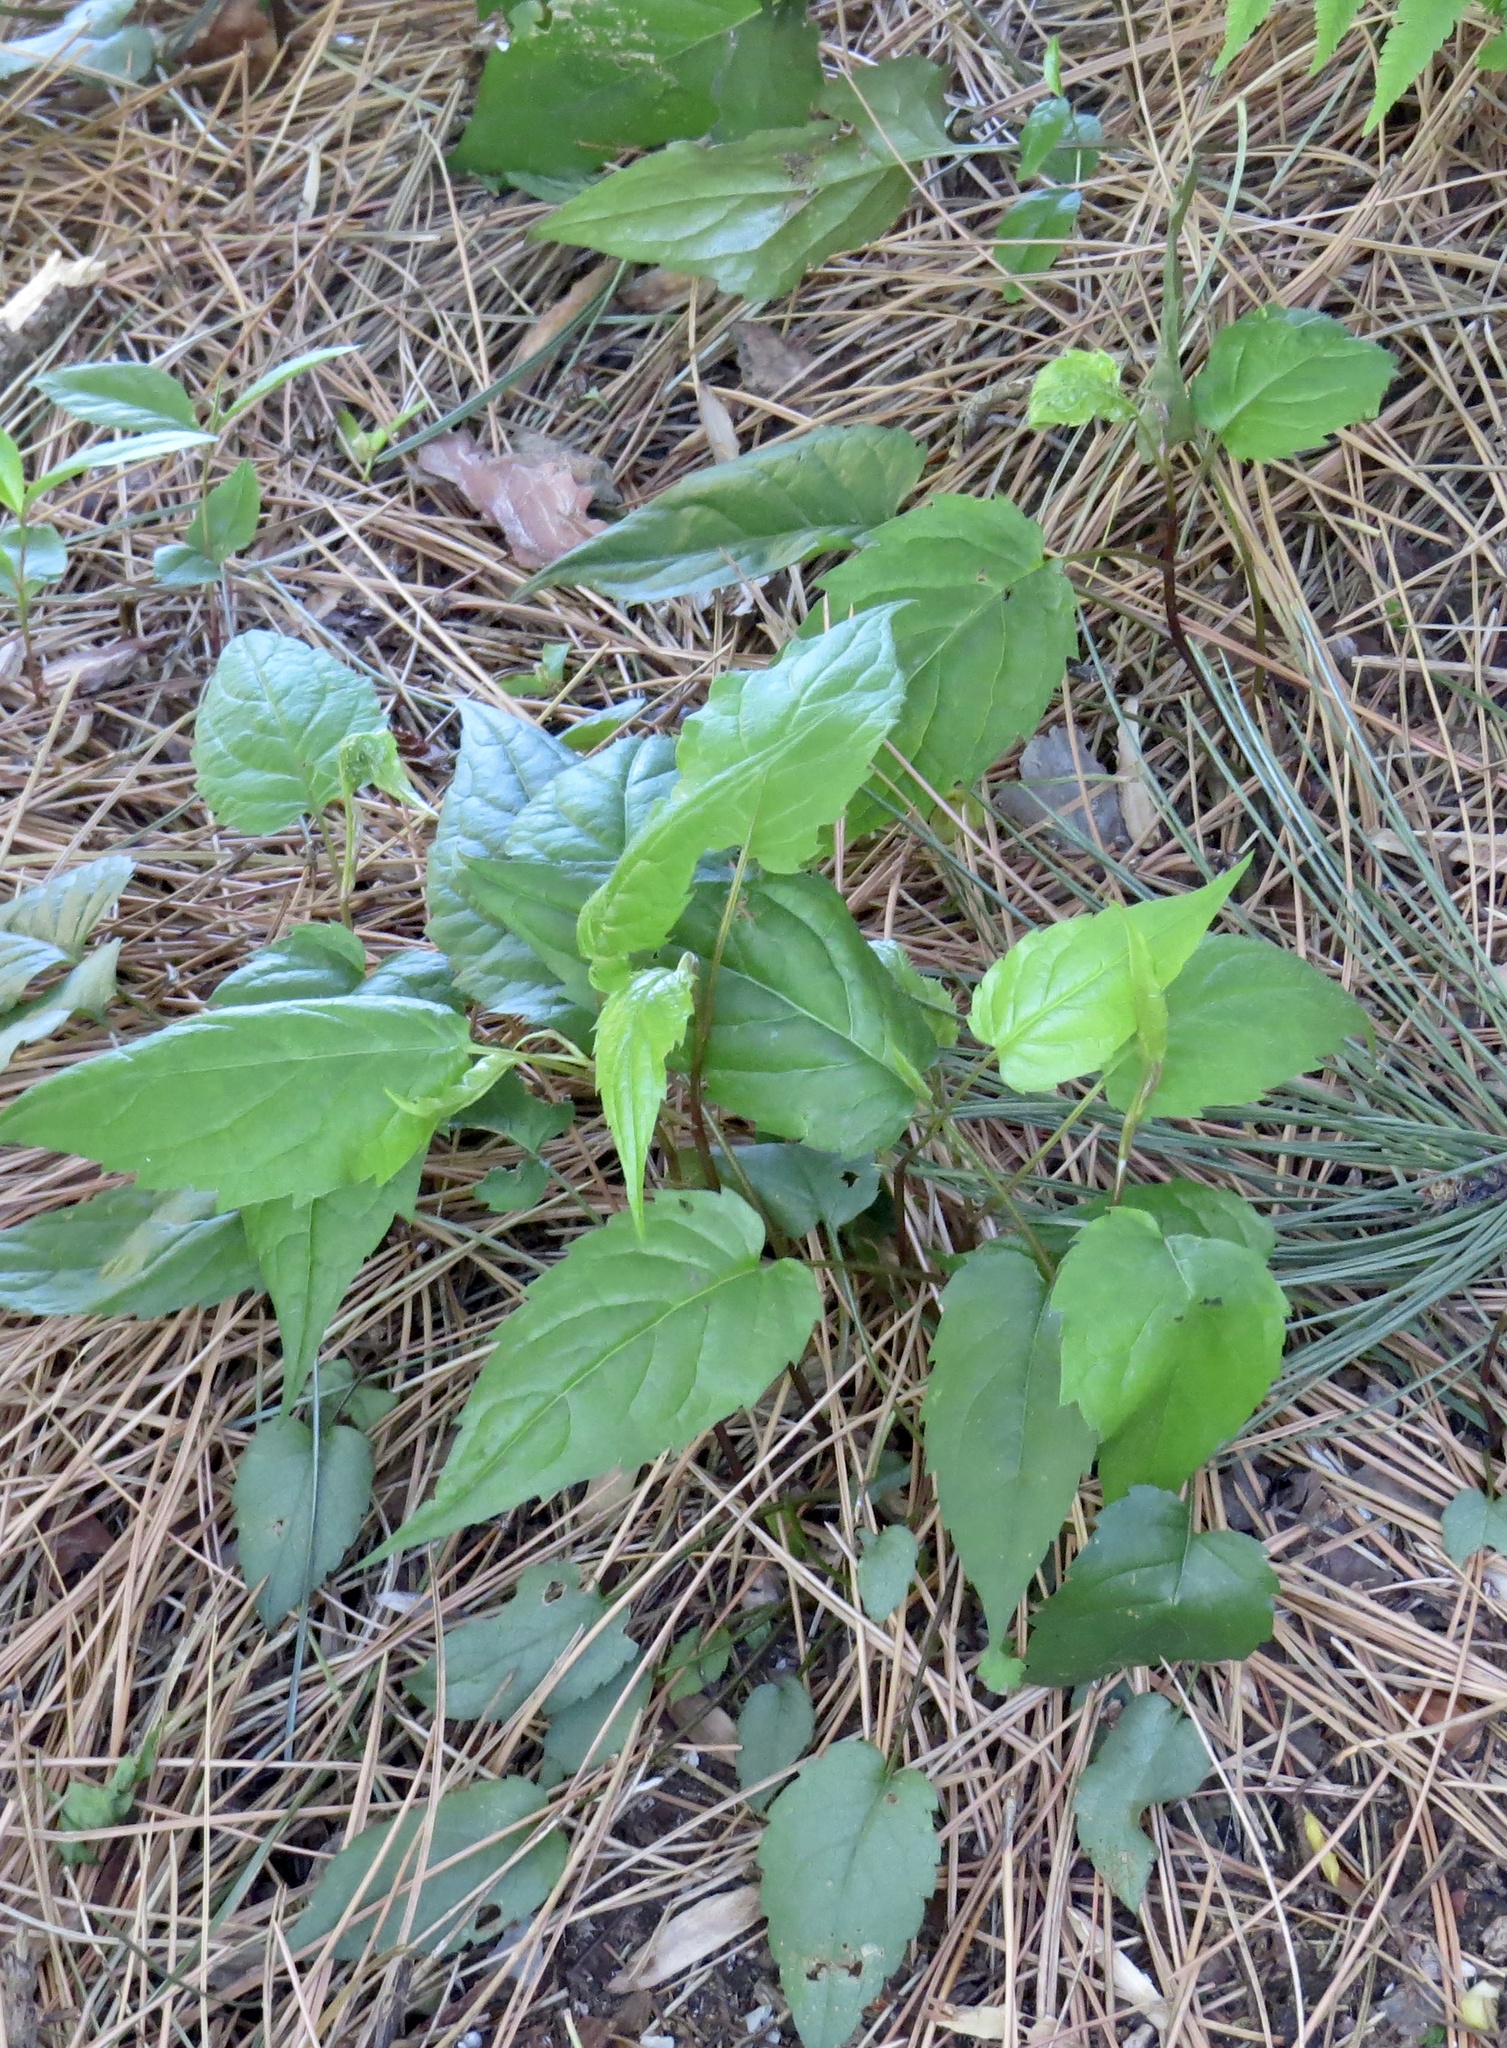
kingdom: Plantae
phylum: Tracheophyta
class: Magnoliopsida
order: Asterales
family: Asteraceae
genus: Eurybia
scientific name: Eurybia divaricata
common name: White wood aster
